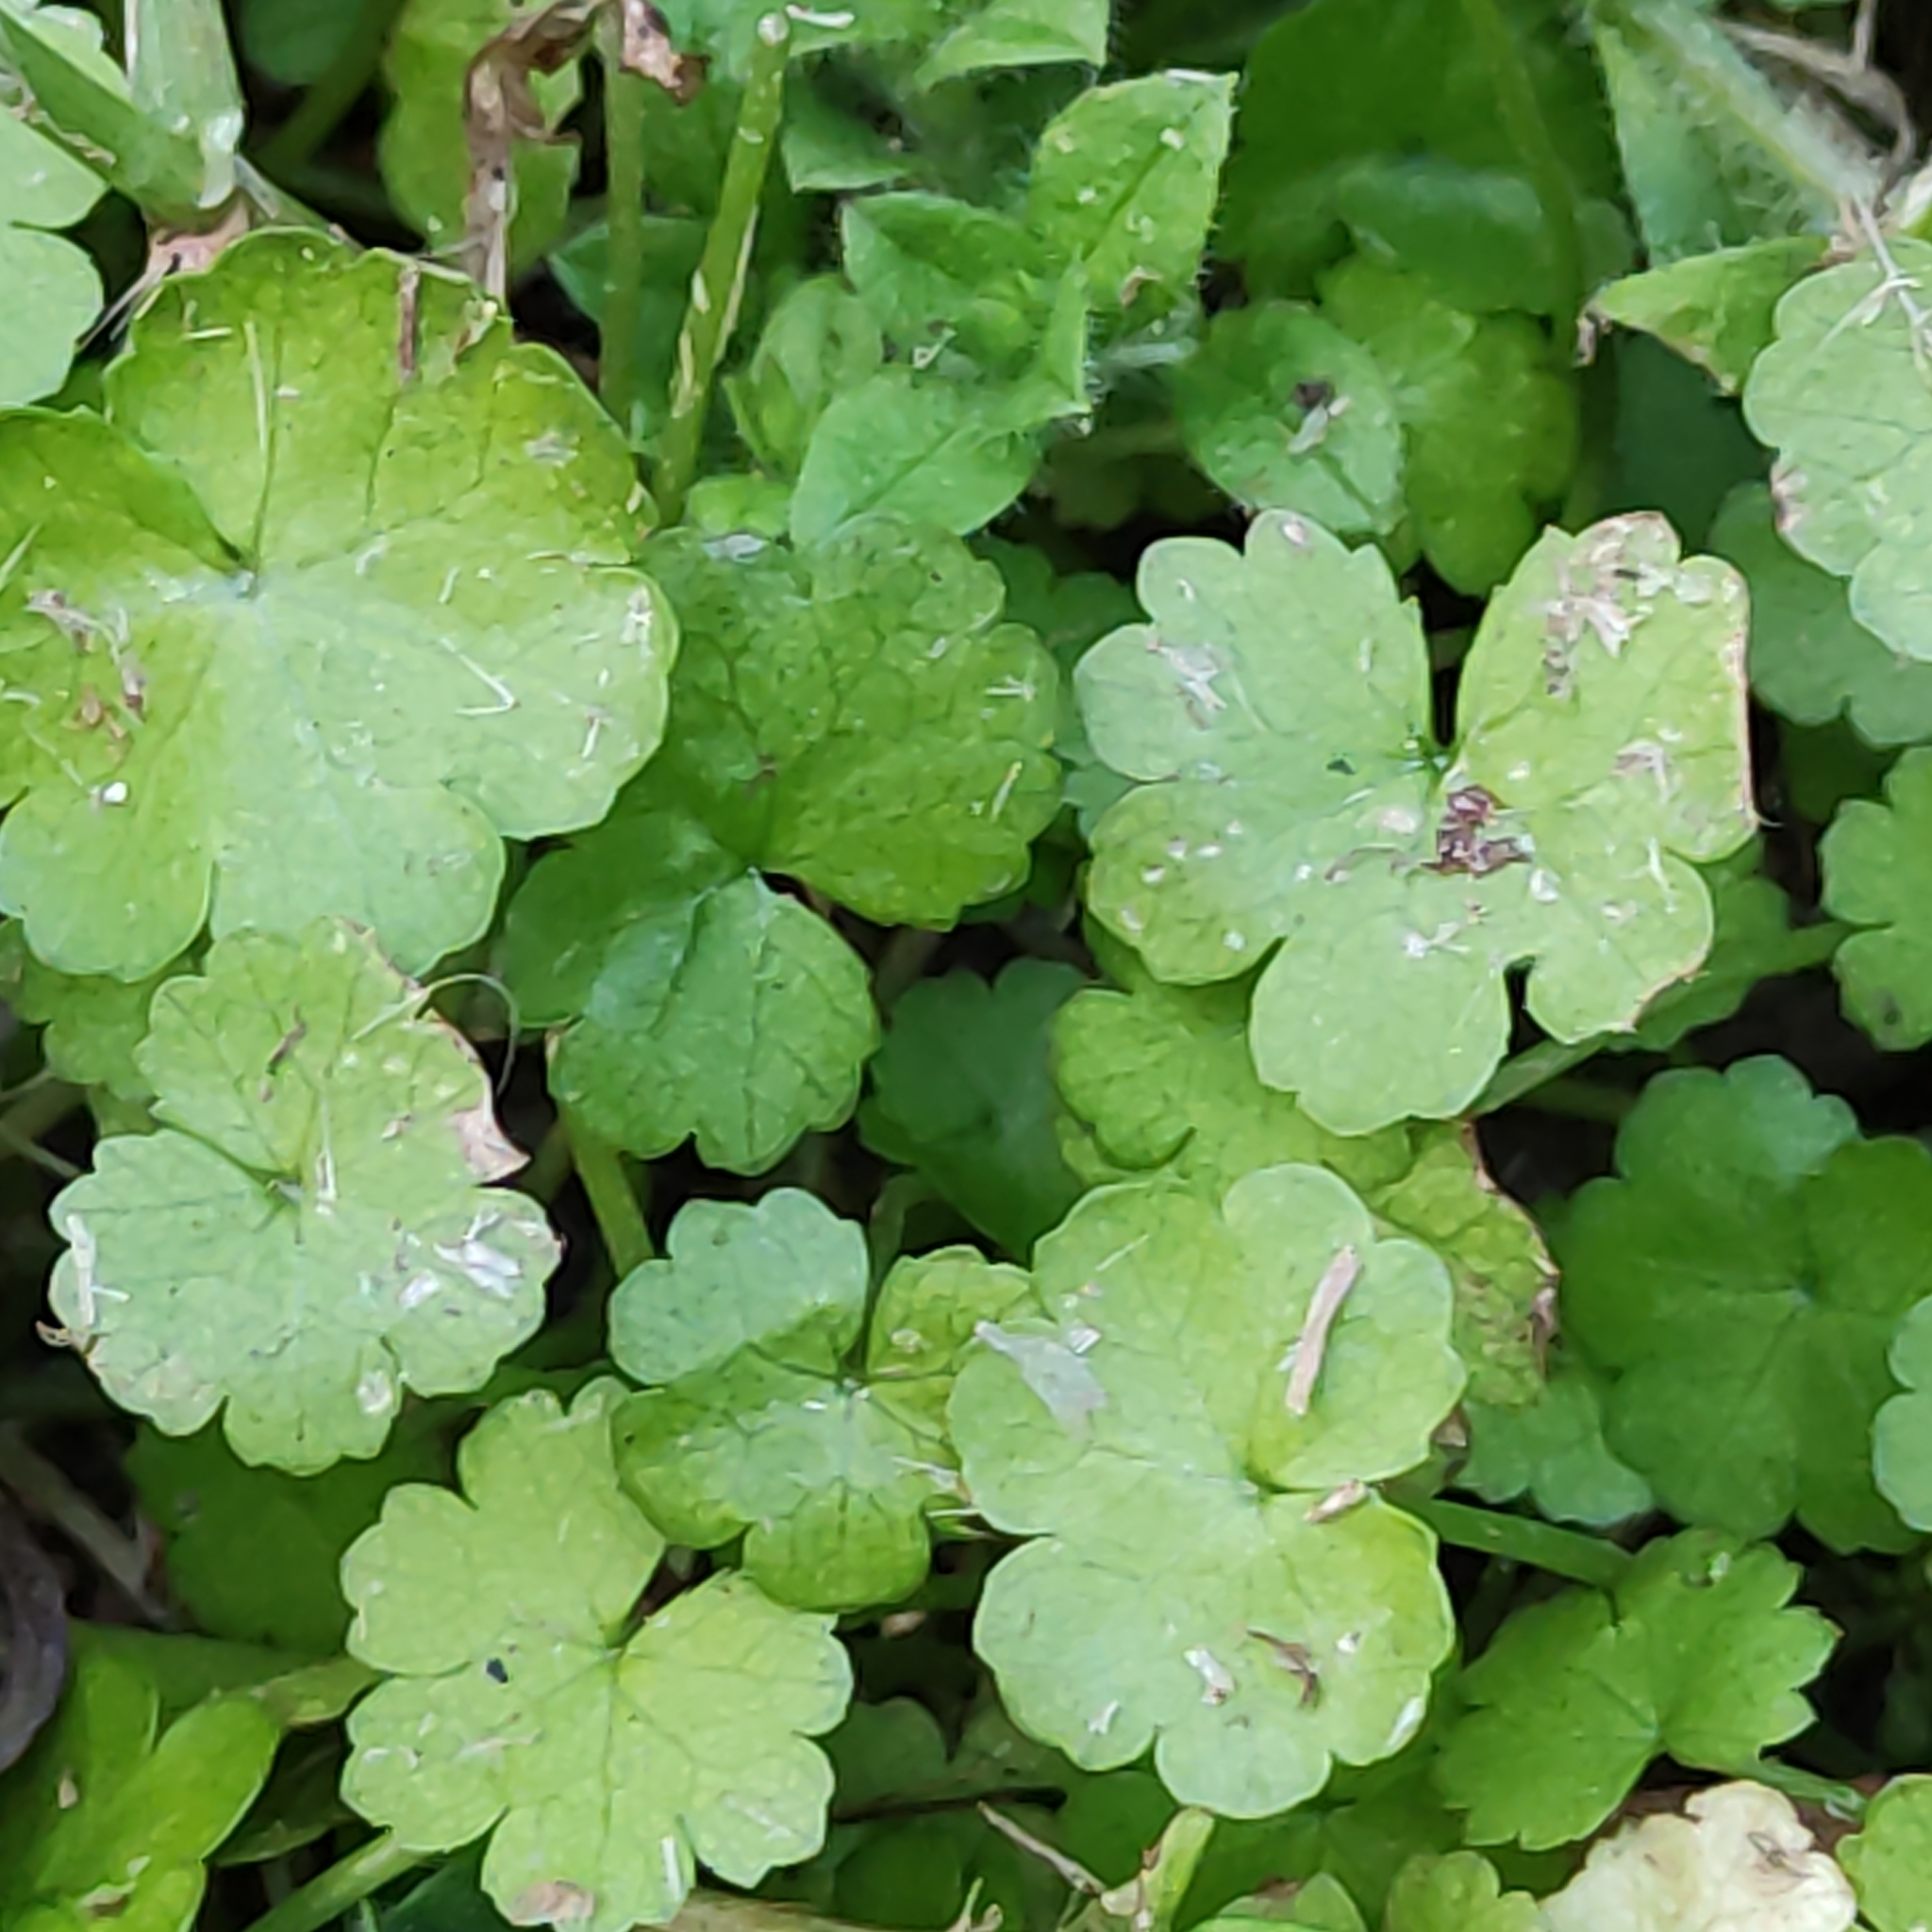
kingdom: Plantae
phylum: Tracheophyta
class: Magnoliopsida
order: Apiales
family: Araliaceae
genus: Hydrocotyle
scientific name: Hydrocotyle heteromeria
